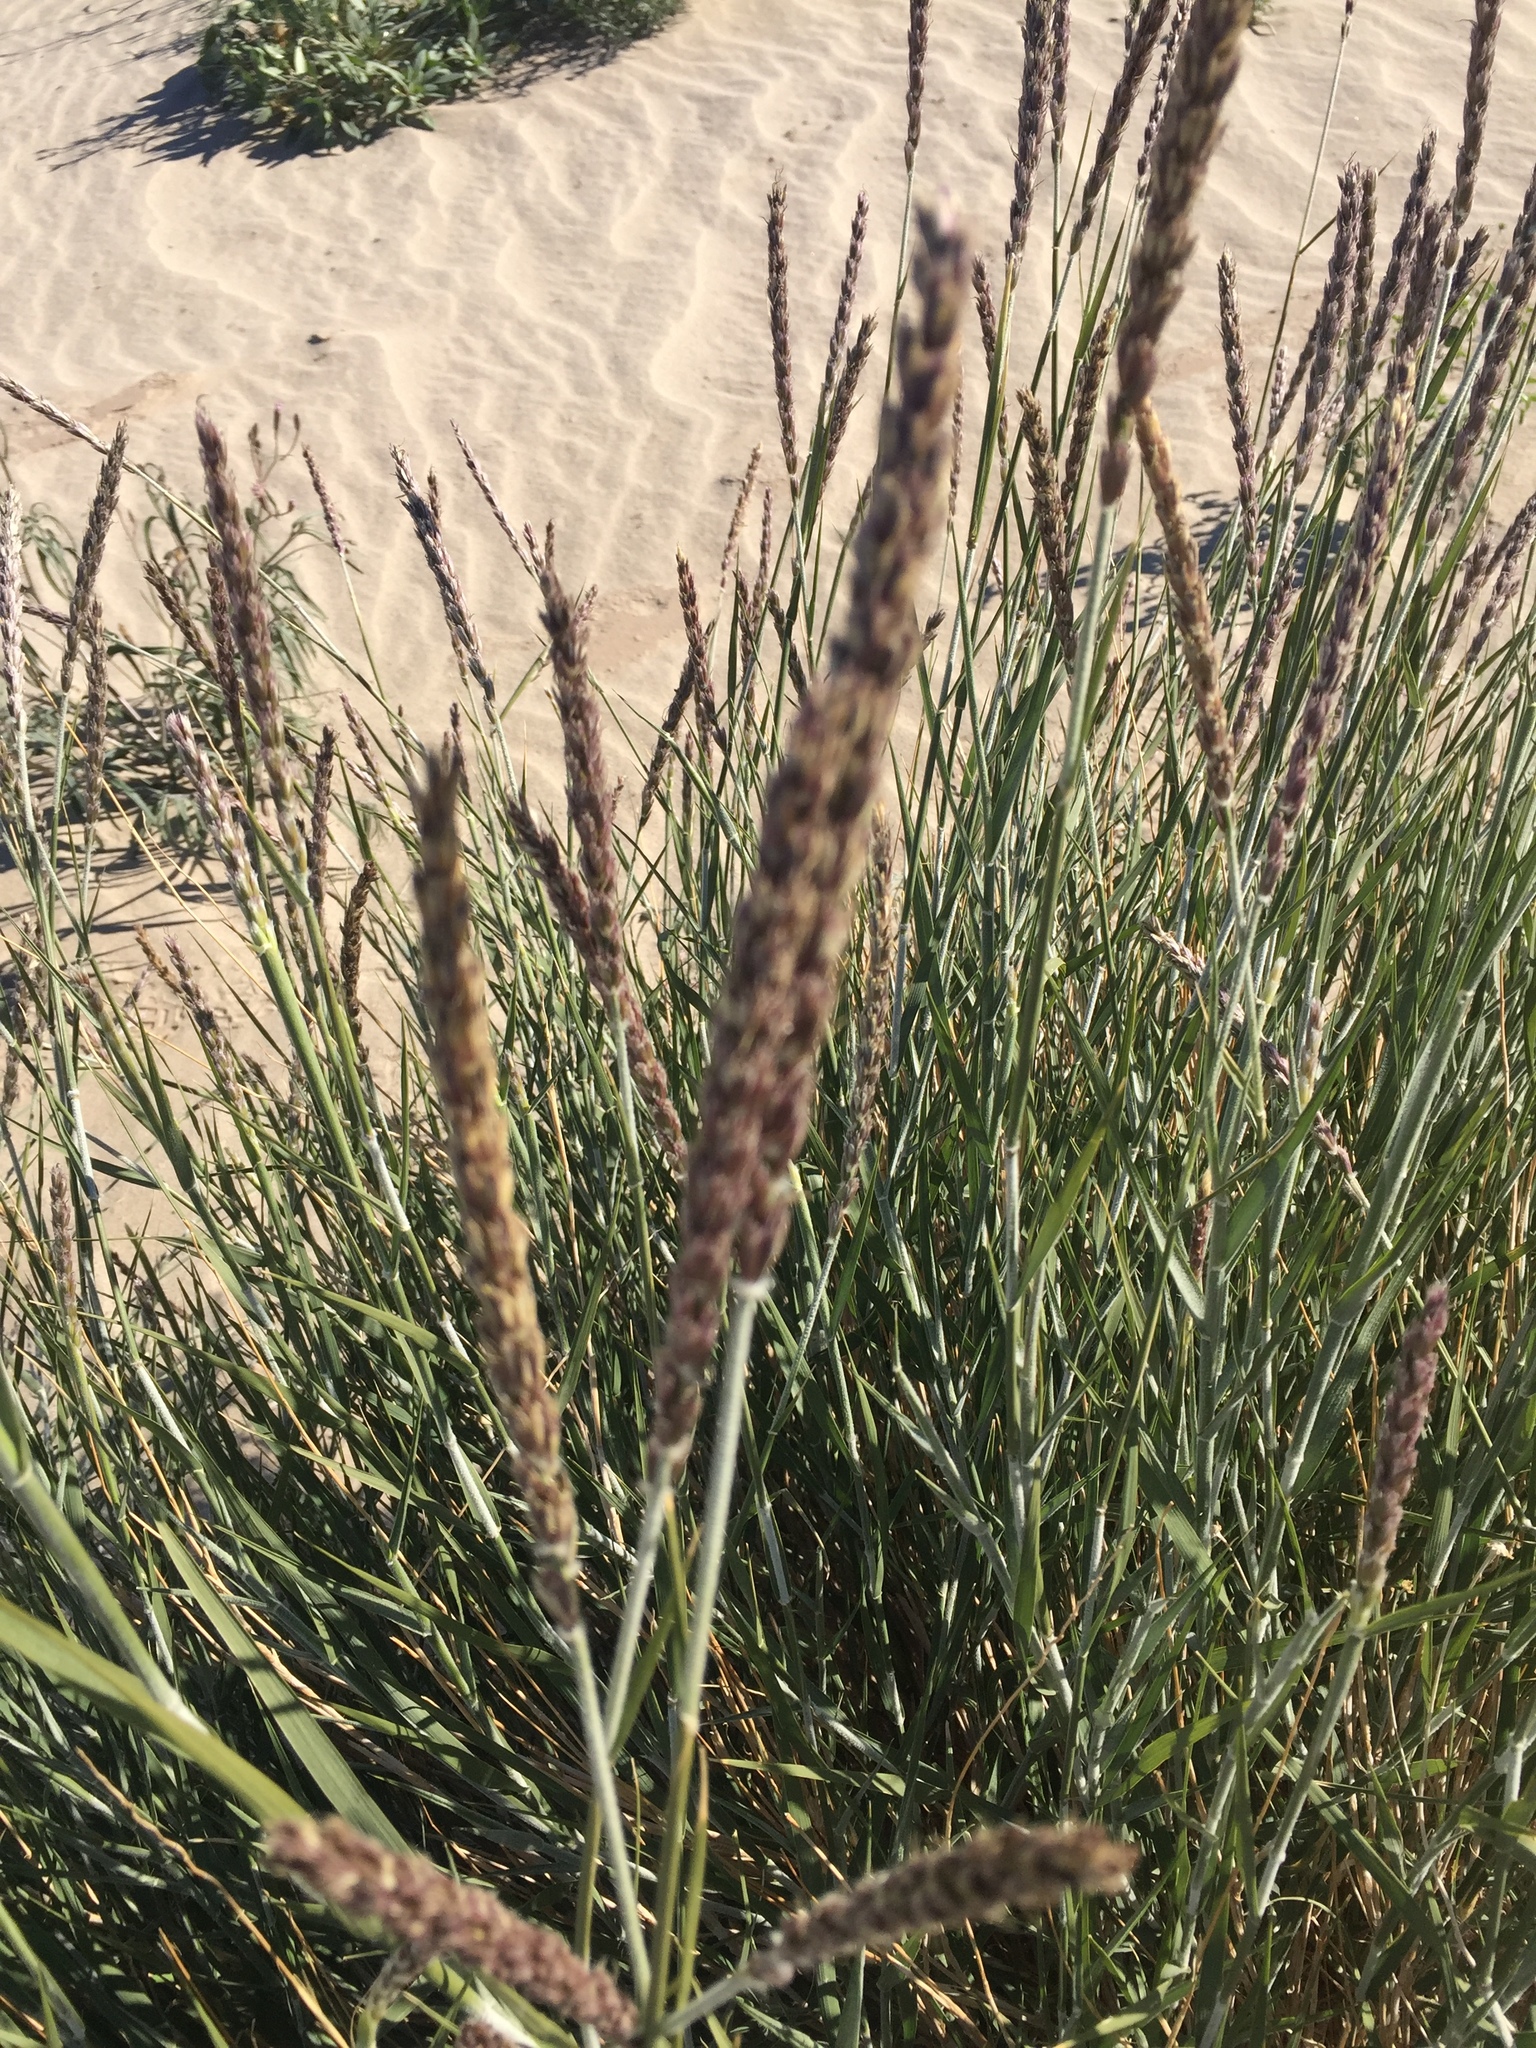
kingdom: Plantae
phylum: Tracheophyta
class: Liliopsida
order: Poales
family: Poaceae
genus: Hilaria
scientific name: Hilaria rigida
